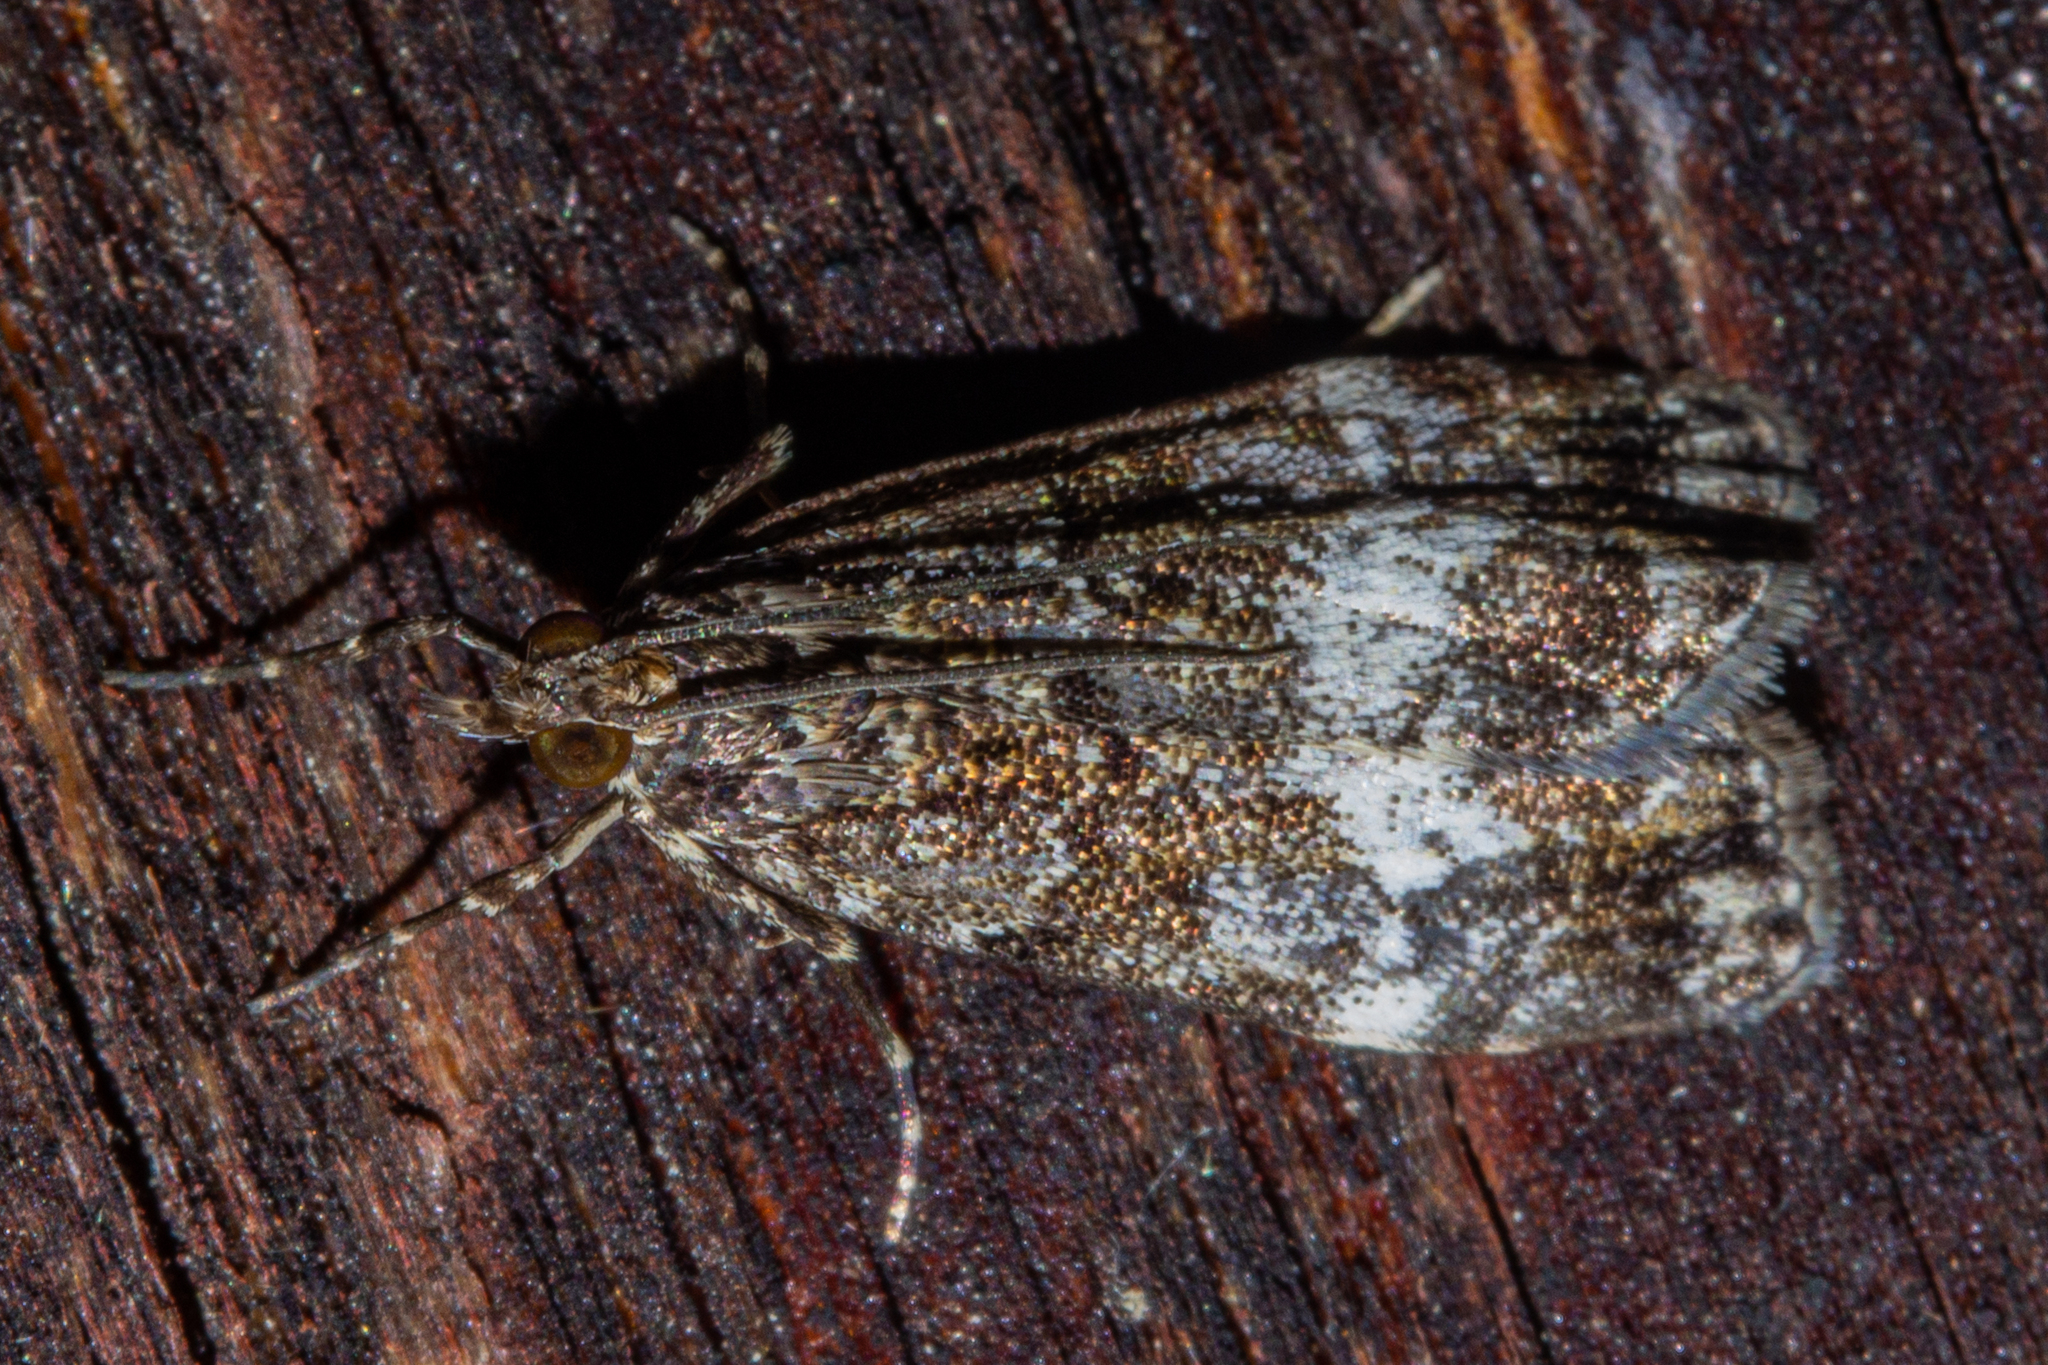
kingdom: Animalia
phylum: Arthropoda
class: Insecta
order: Lepidoptera
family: Crambidae
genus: Eudonia
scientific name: Eudonia dinodes
